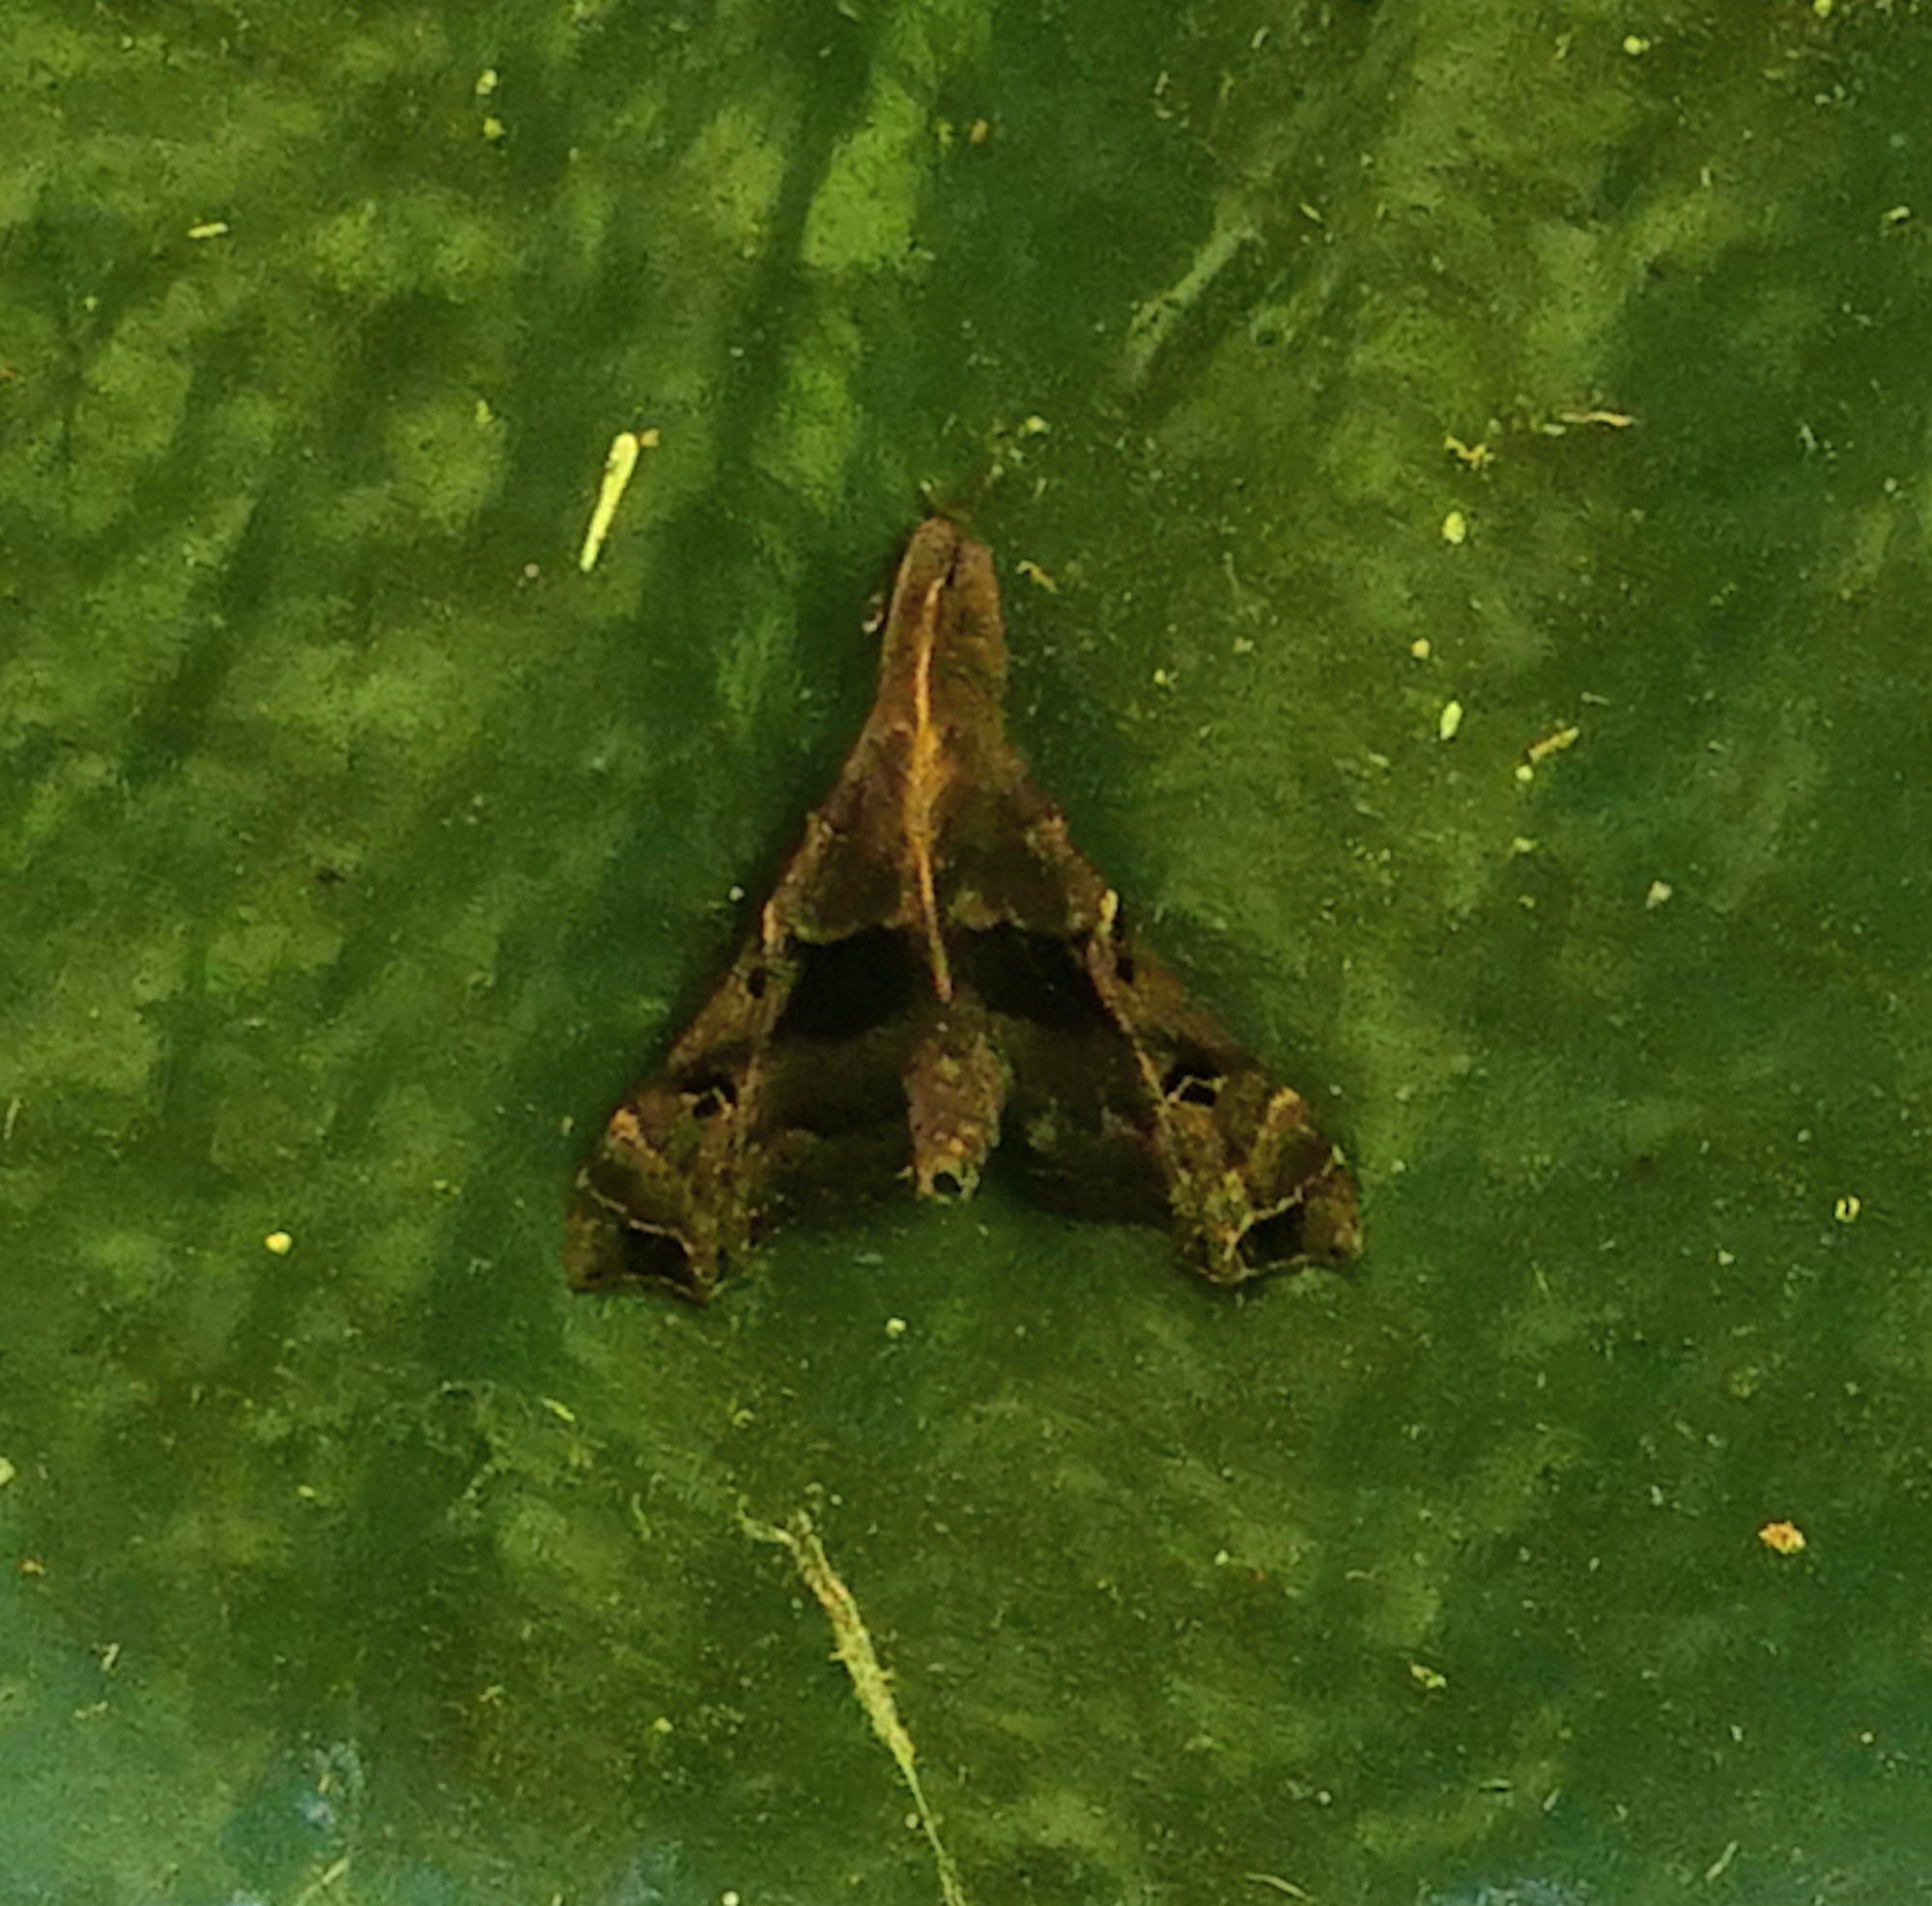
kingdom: Animalia
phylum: Arthropoda
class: Insecta
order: Lepidoptera
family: Erebidae
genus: Palthis
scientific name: Palthis asopialis
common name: Faint-spotted palthis moth
